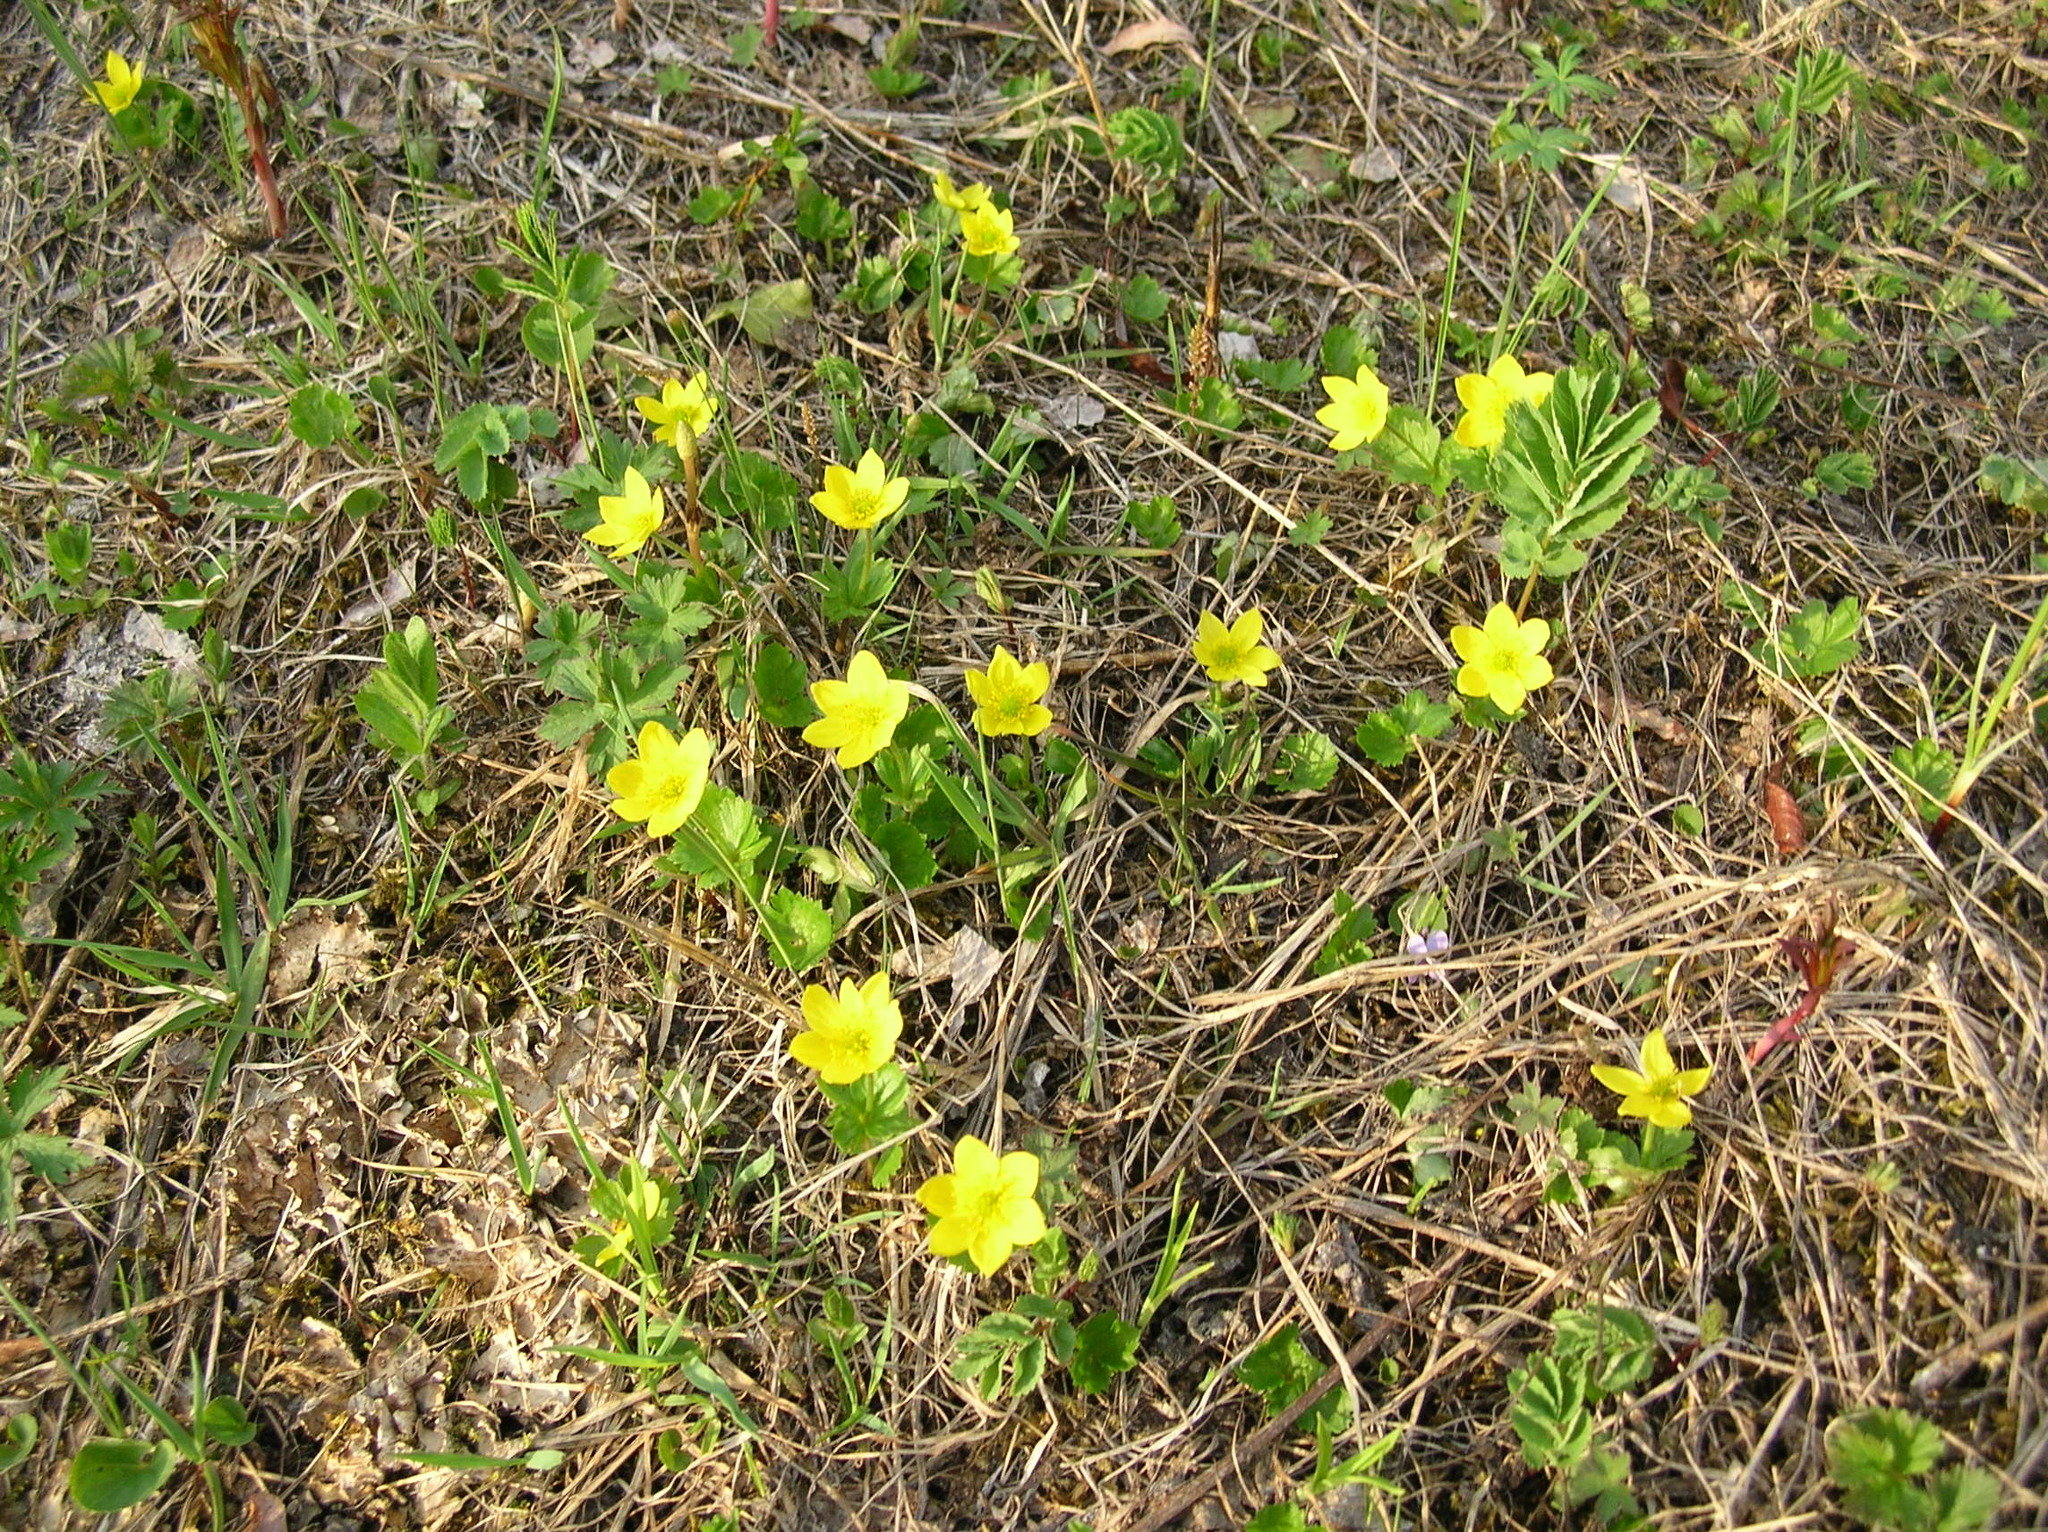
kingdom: Plantae
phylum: Tracheophyta
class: Magnoliopsida
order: Ranunculales
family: Ranunculaceae
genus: Anemonastrum
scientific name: Anemonastrum richardsonii
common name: Richardson's anemone
